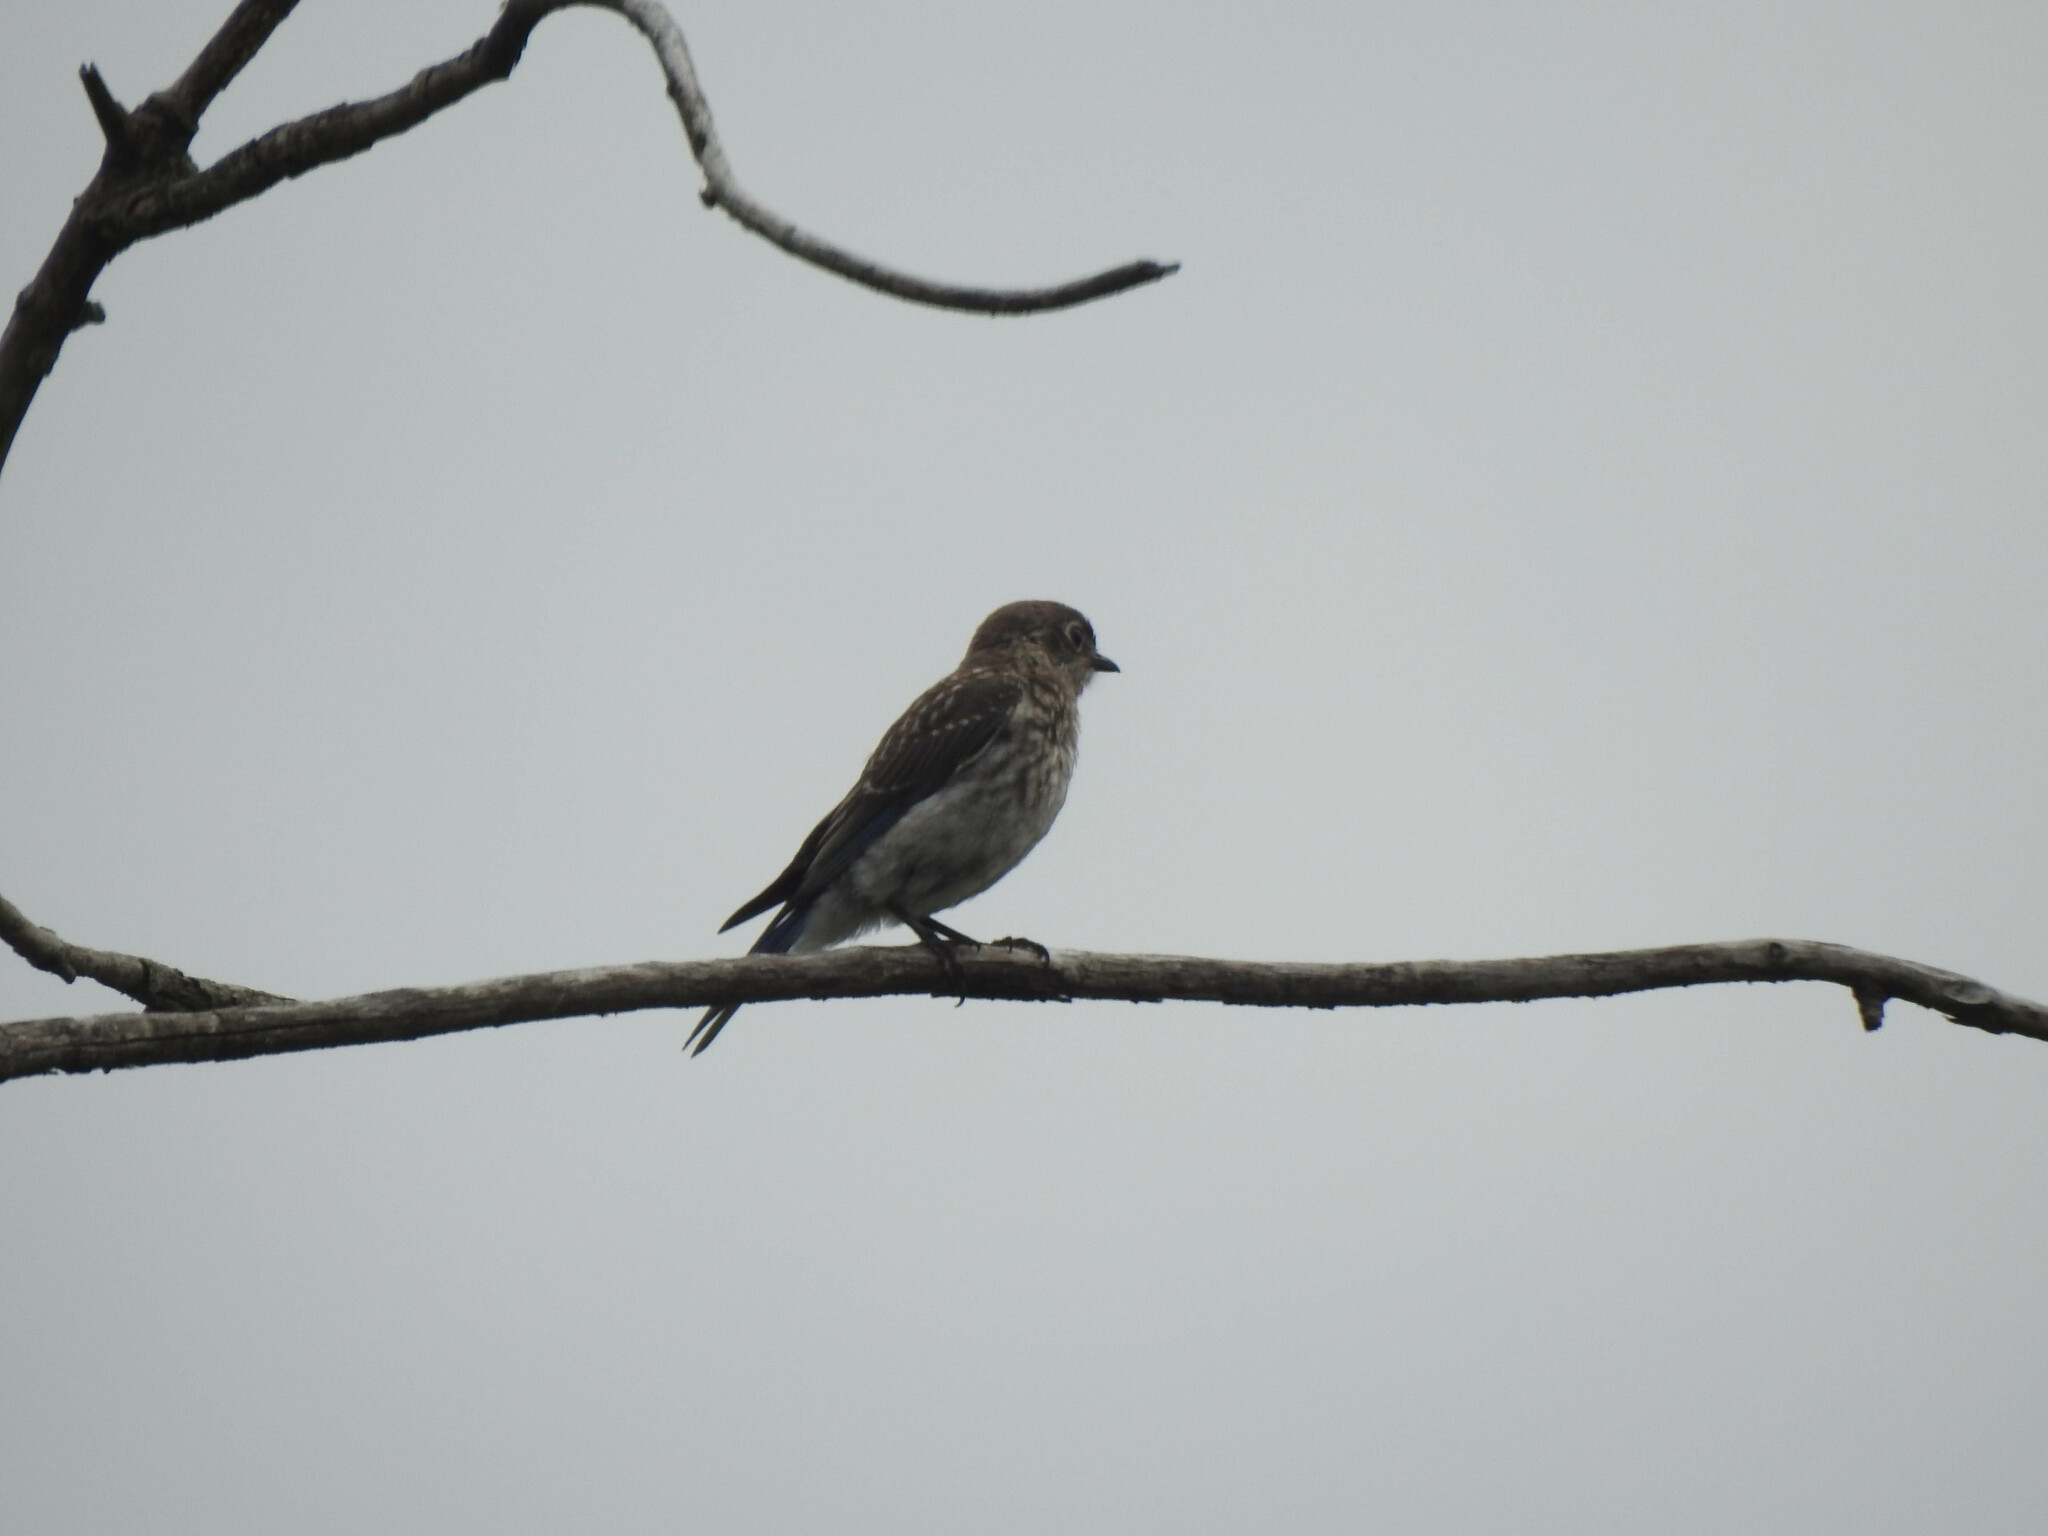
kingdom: Animalia
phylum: Chordata
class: Aves
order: Passeriformes
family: Turdidae
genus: Sialia
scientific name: Sialia sialis
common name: Eastern bluebird
